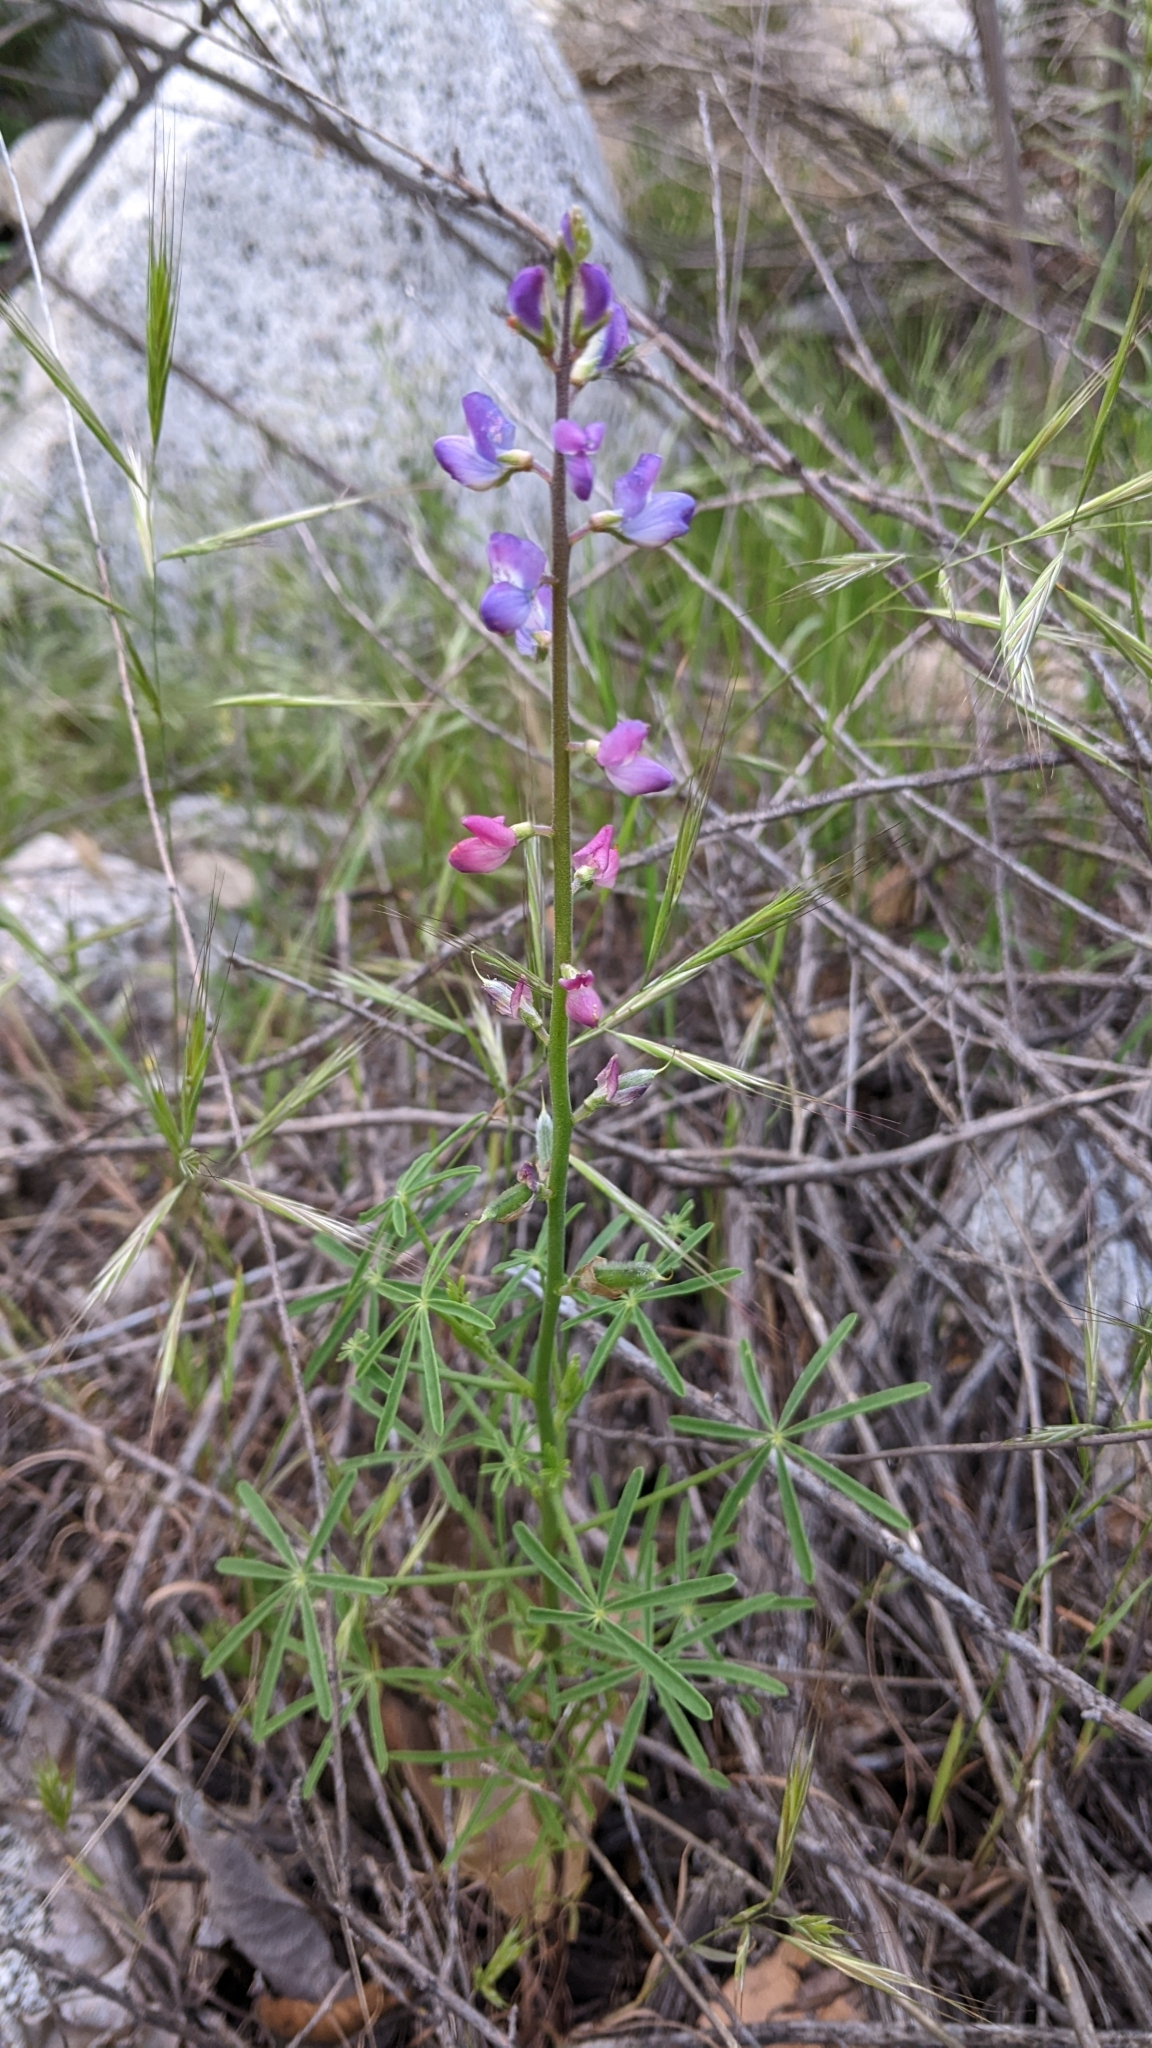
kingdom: Plantae
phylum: Tracheophyta
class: Magnoliopsida
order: Fabales
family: Fabaceae
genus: Lupinus
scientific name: Lupinus truncatus
